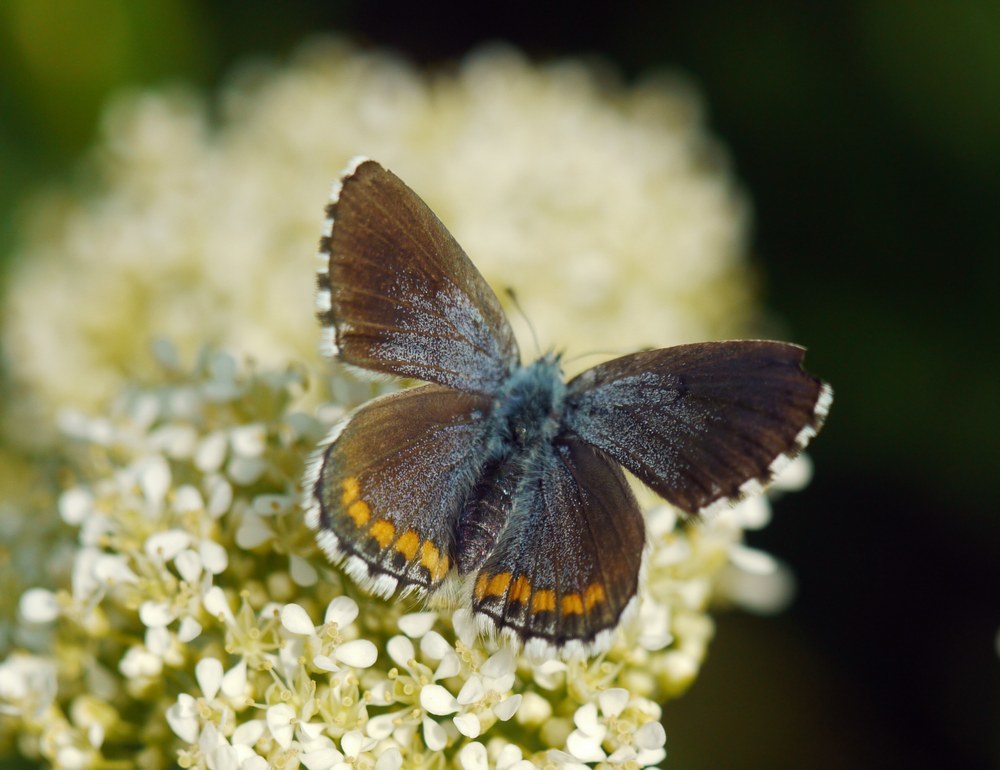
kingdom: Animalia
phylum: Arthropoda
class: Insecta
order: Lepidoptera
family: Lycaenidae
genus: Pseudophilotes
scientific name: Pseudophilotes bavius
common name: Bavius blue
